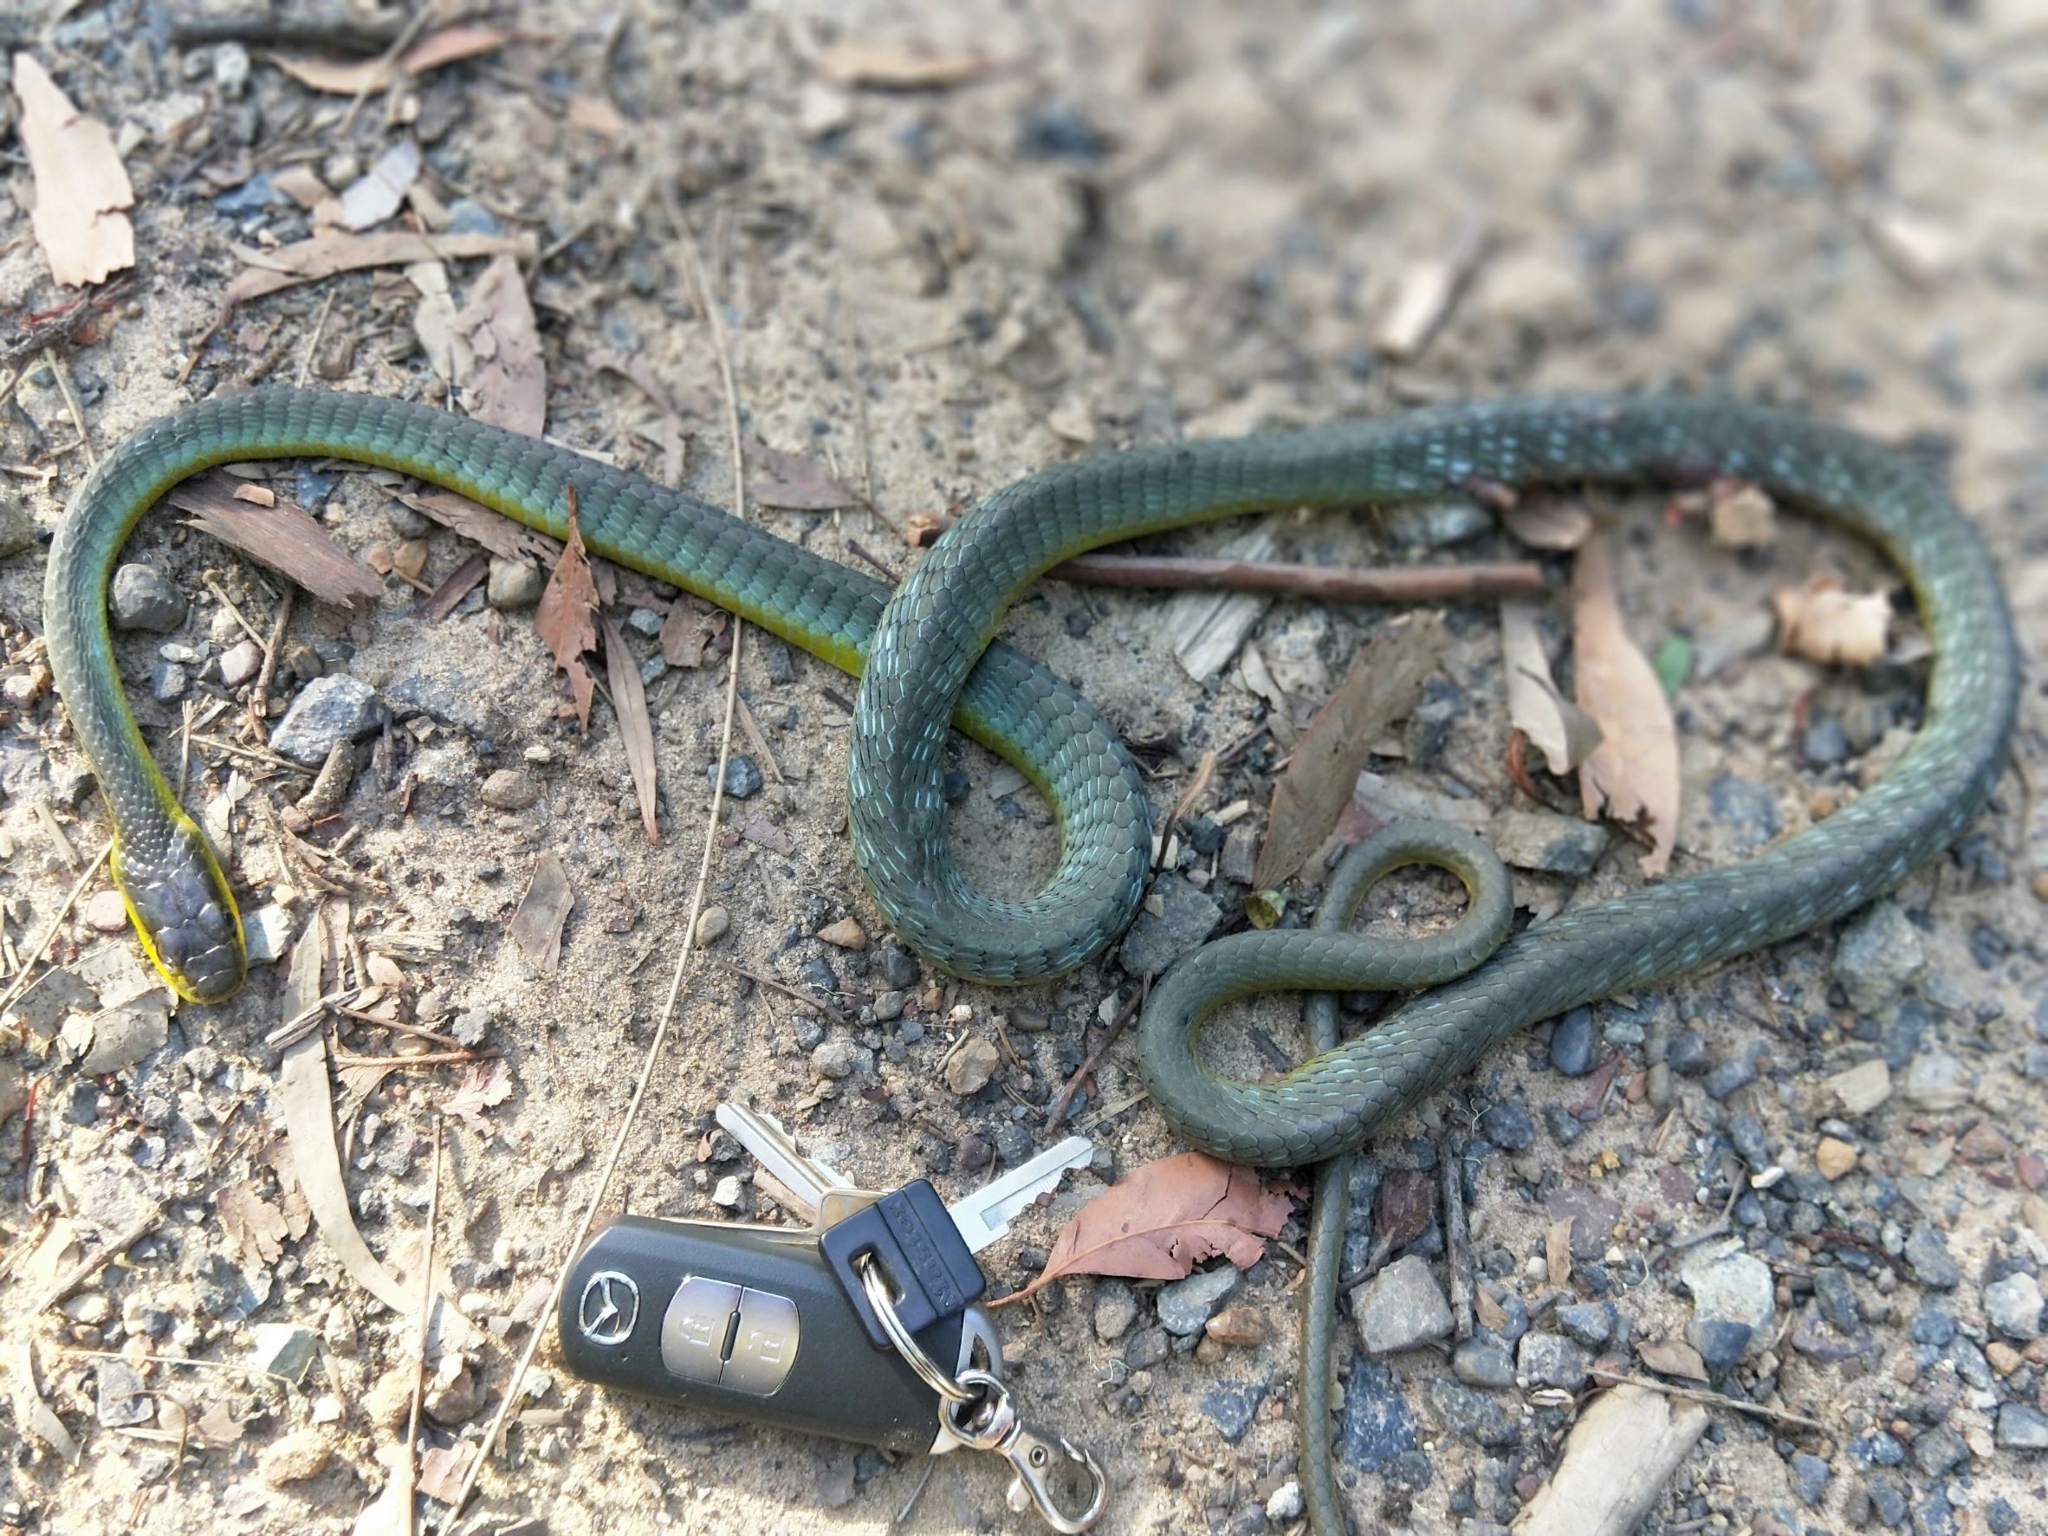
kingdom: Animalia
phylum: Chordata
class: Squamata
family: Colubridae
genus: Dendrelaphis
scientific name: Dendrelaphis punctulatus
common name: Common tree snake
